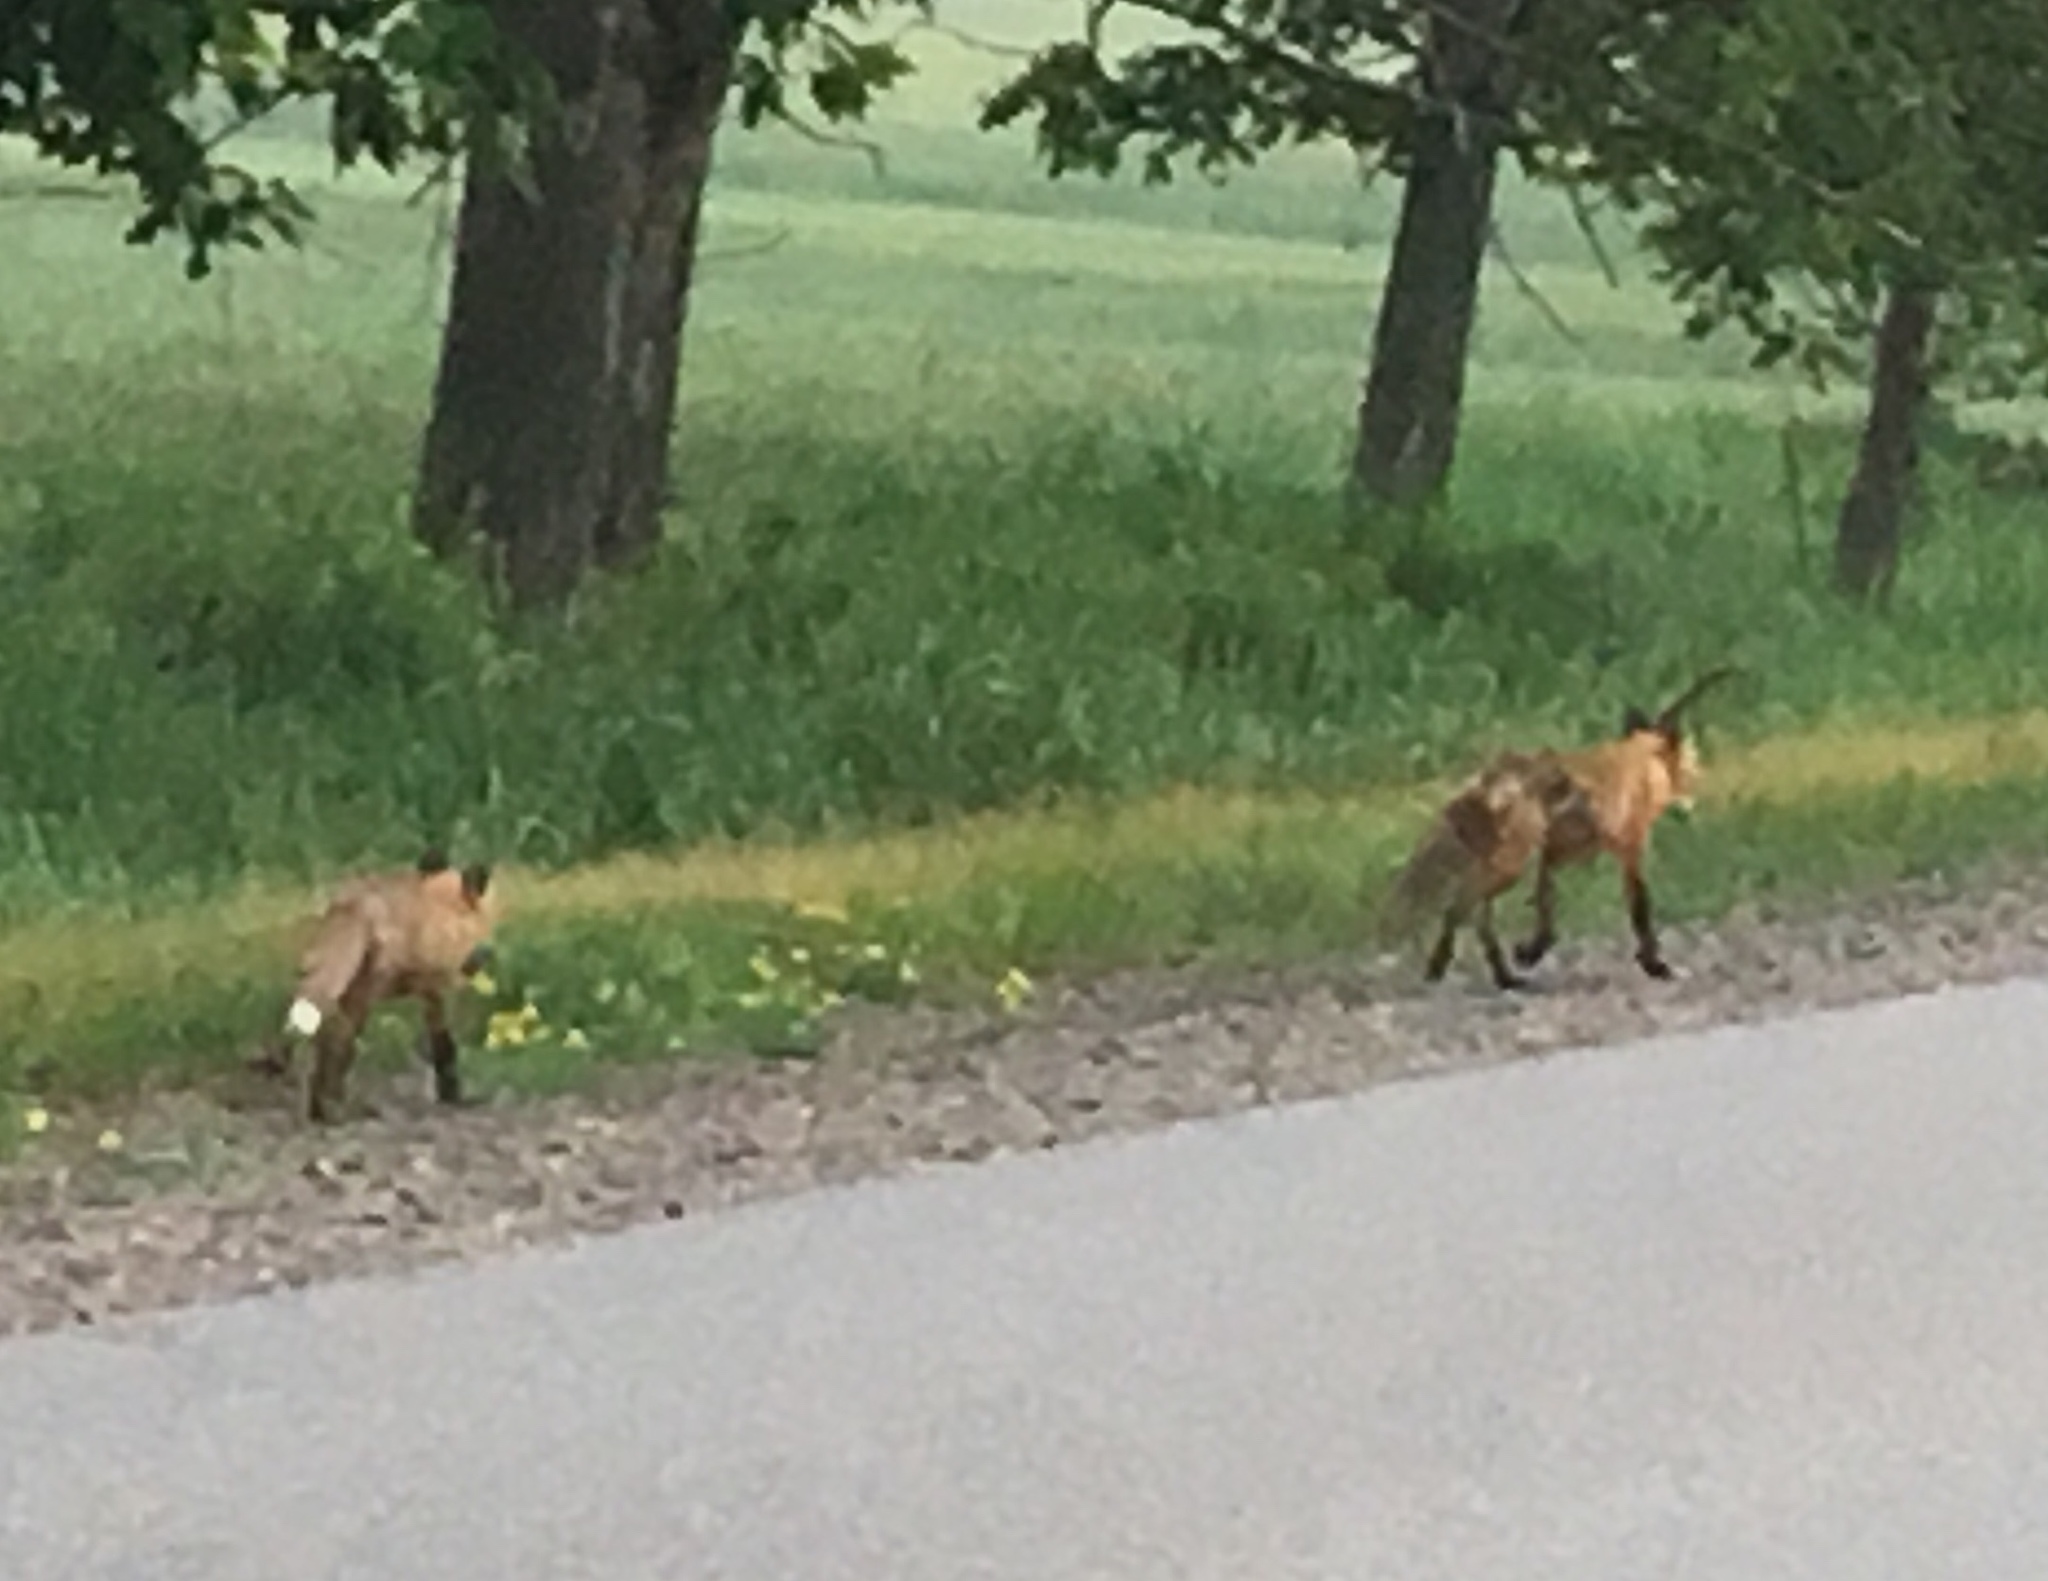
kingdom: Animalia
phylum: Chordata
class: Mammalia
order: Carnivora
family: Canidae
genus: Vulpes
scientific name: Vulpes vulpes
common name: Red fox
